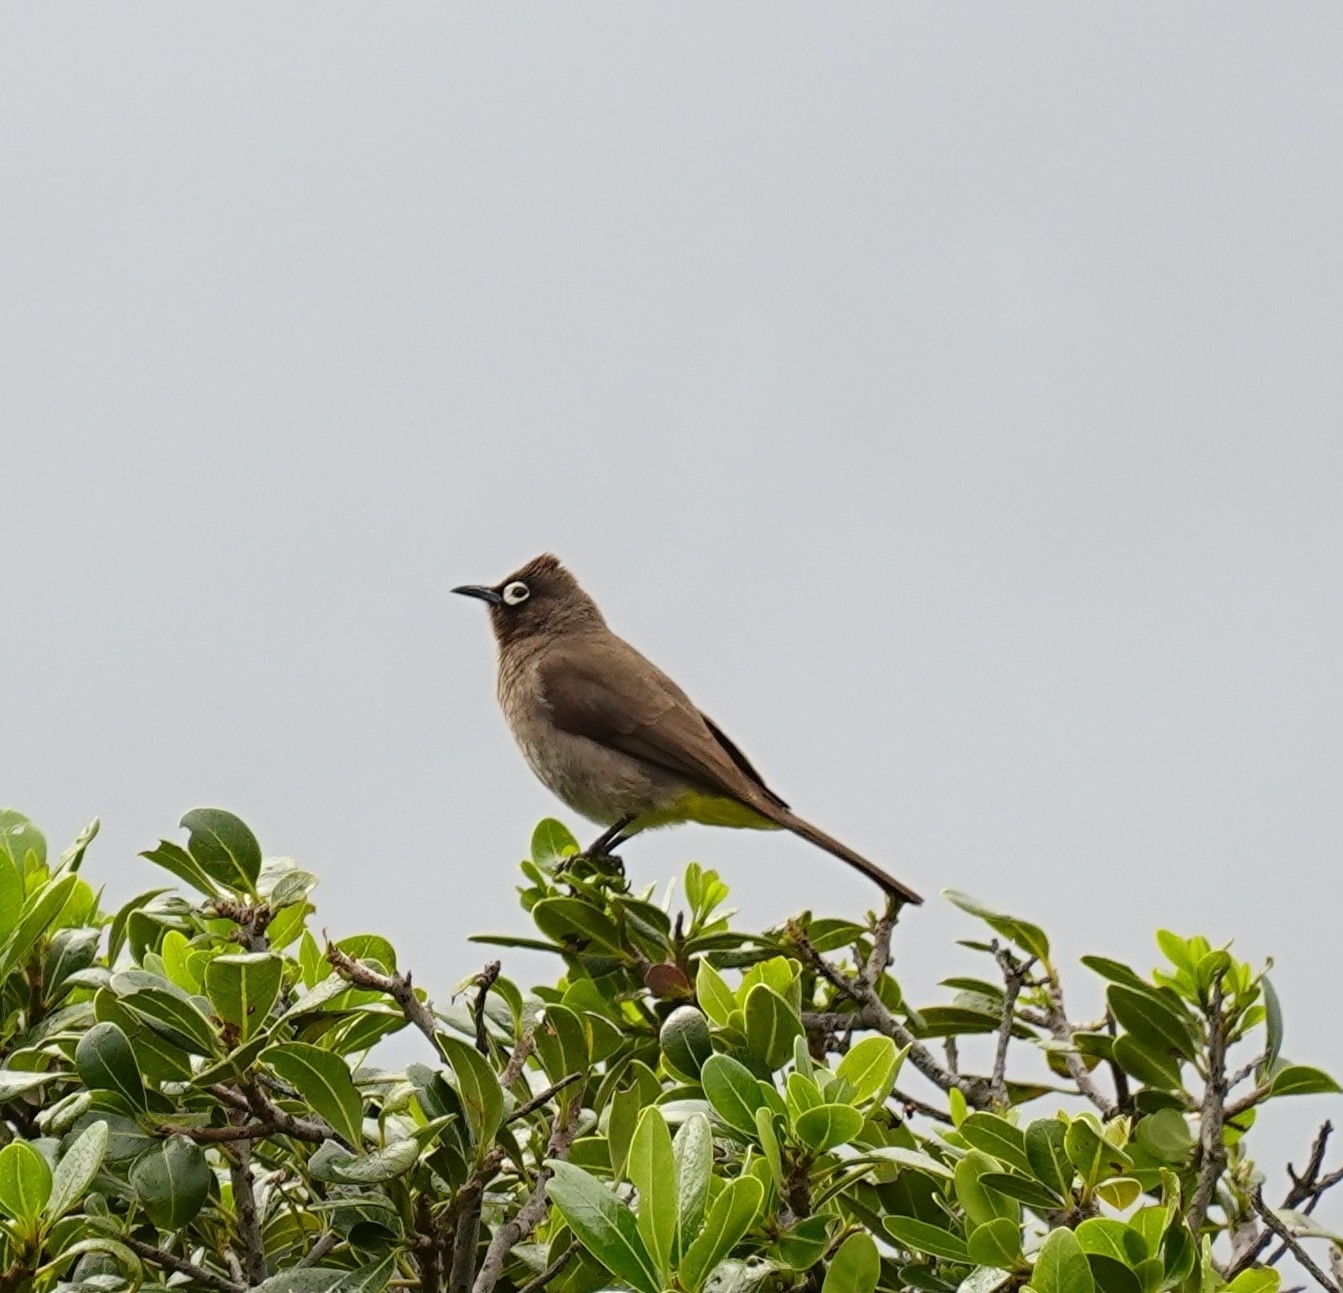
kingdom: Animalia
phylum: Chordata
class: Aves
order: Passeriformes
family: Pycnonotidae
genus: Pycnonotus
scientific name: Pycnonotus capensis
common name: Cape bulbul
